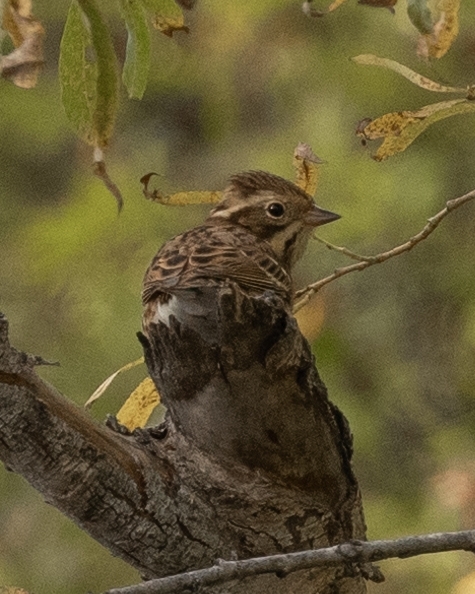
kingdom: Animalia
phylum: Chordata
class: Aves
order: Passeriformes
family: Emberizidae
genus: Emberiza
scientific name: Emberiza rustica
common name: Rustic bunting
